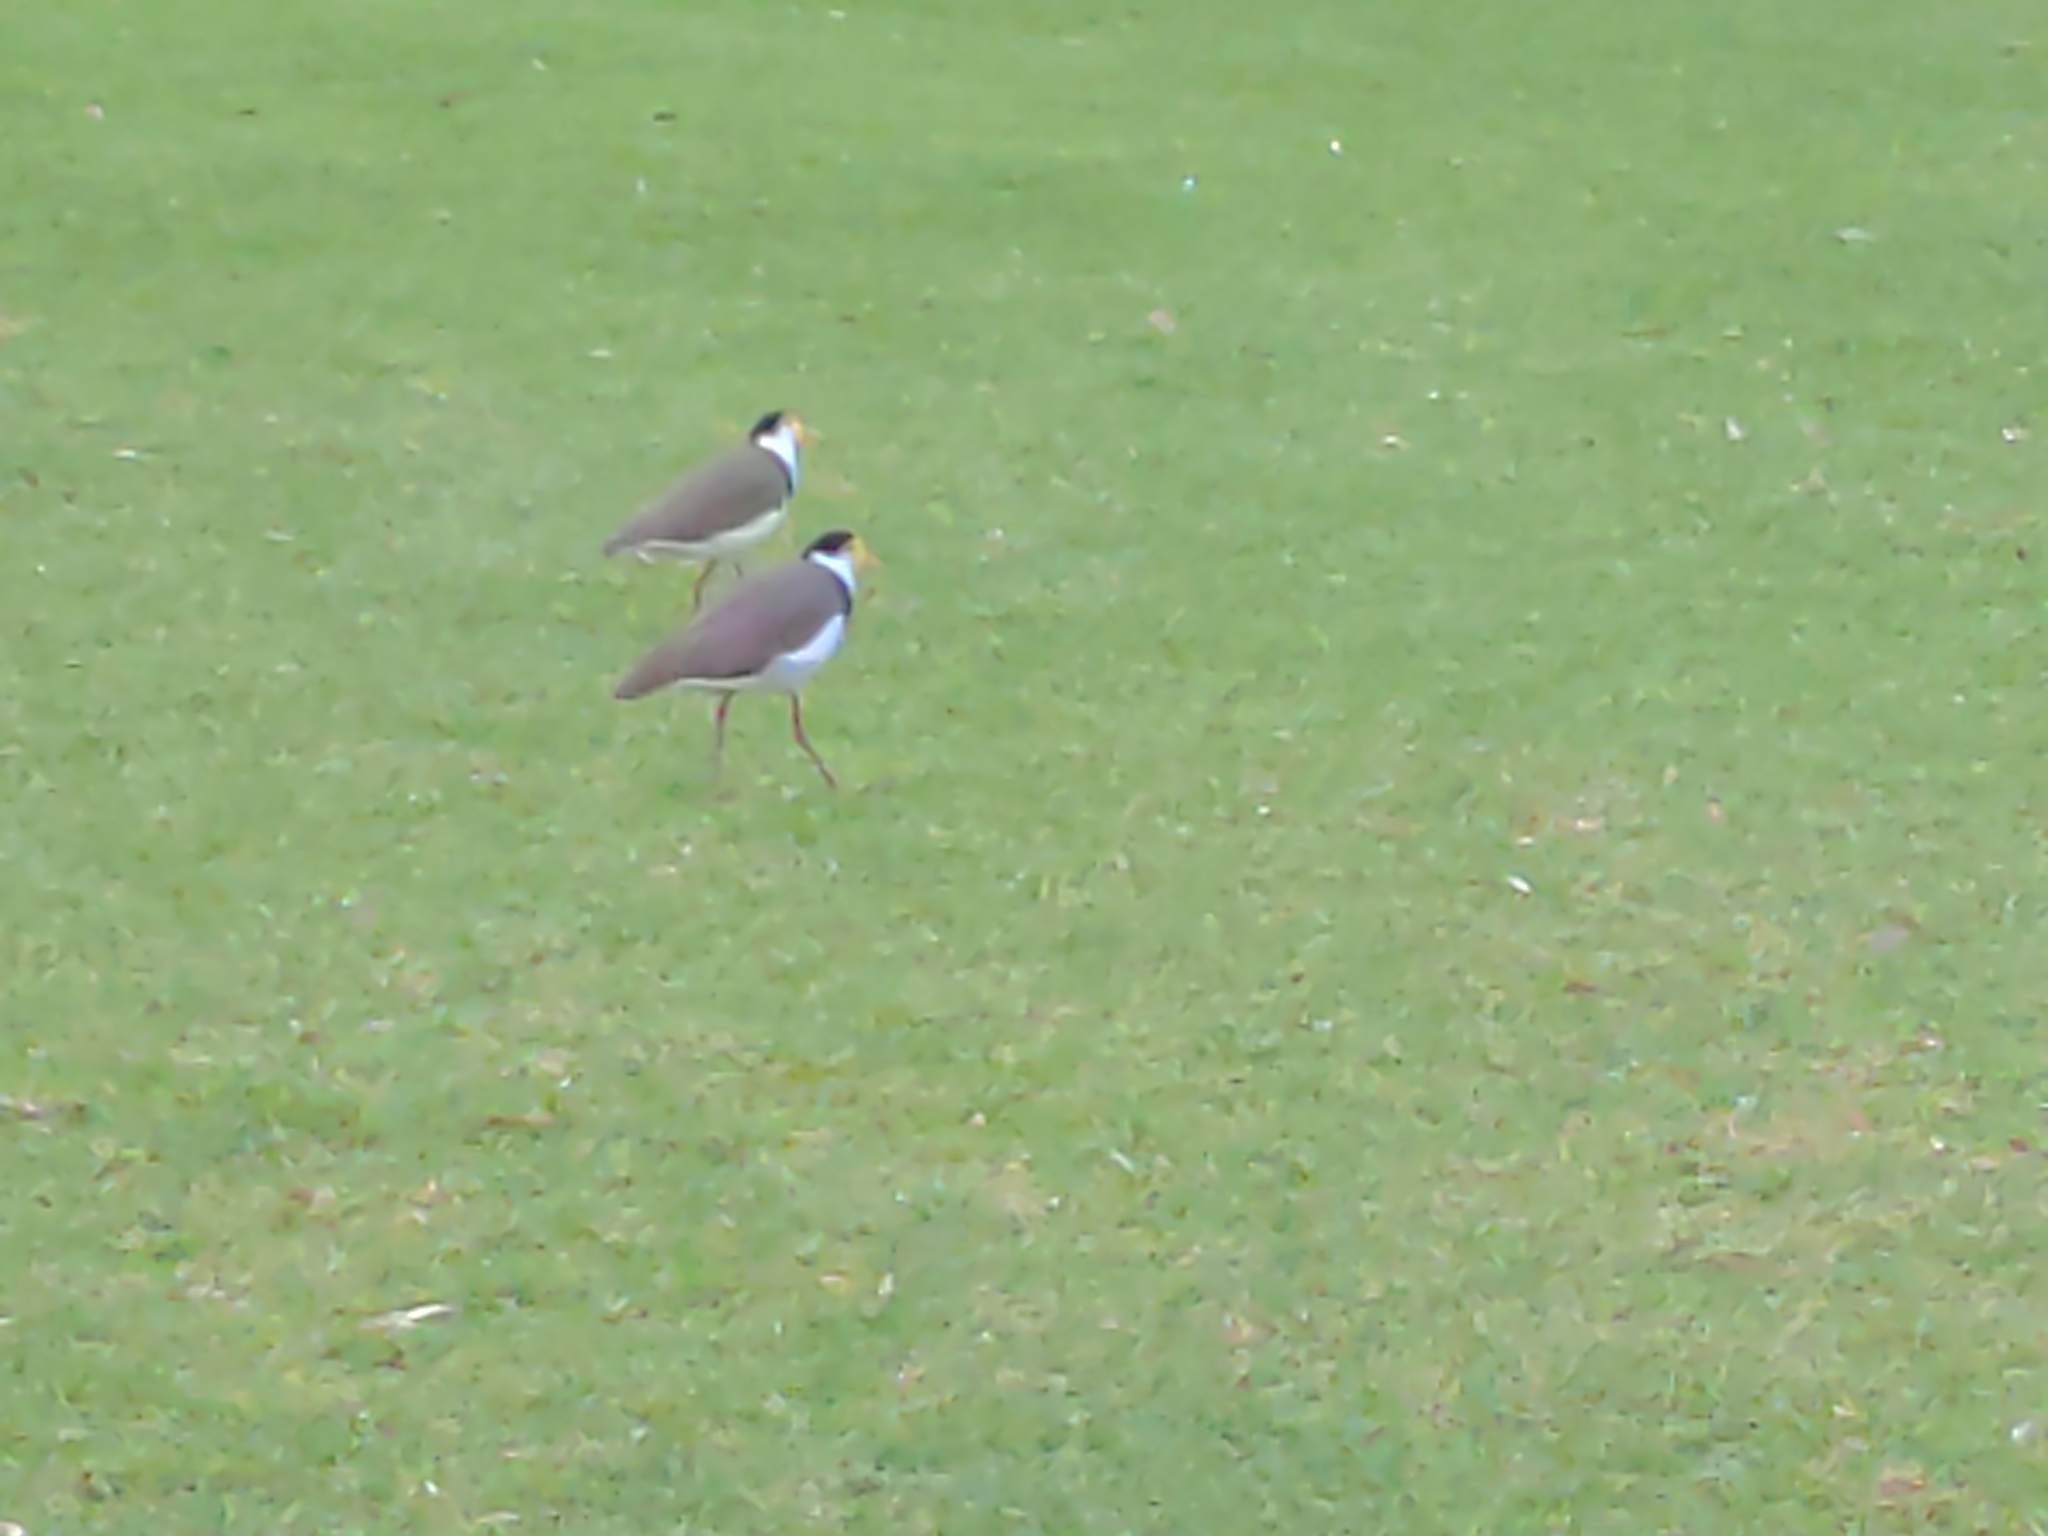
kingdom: Animalia
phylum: Chordata
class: Aves
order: Charadriiformes
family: Charadriidae
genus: Vanellus
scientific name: Vanellus miles
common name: Masked lapwing
